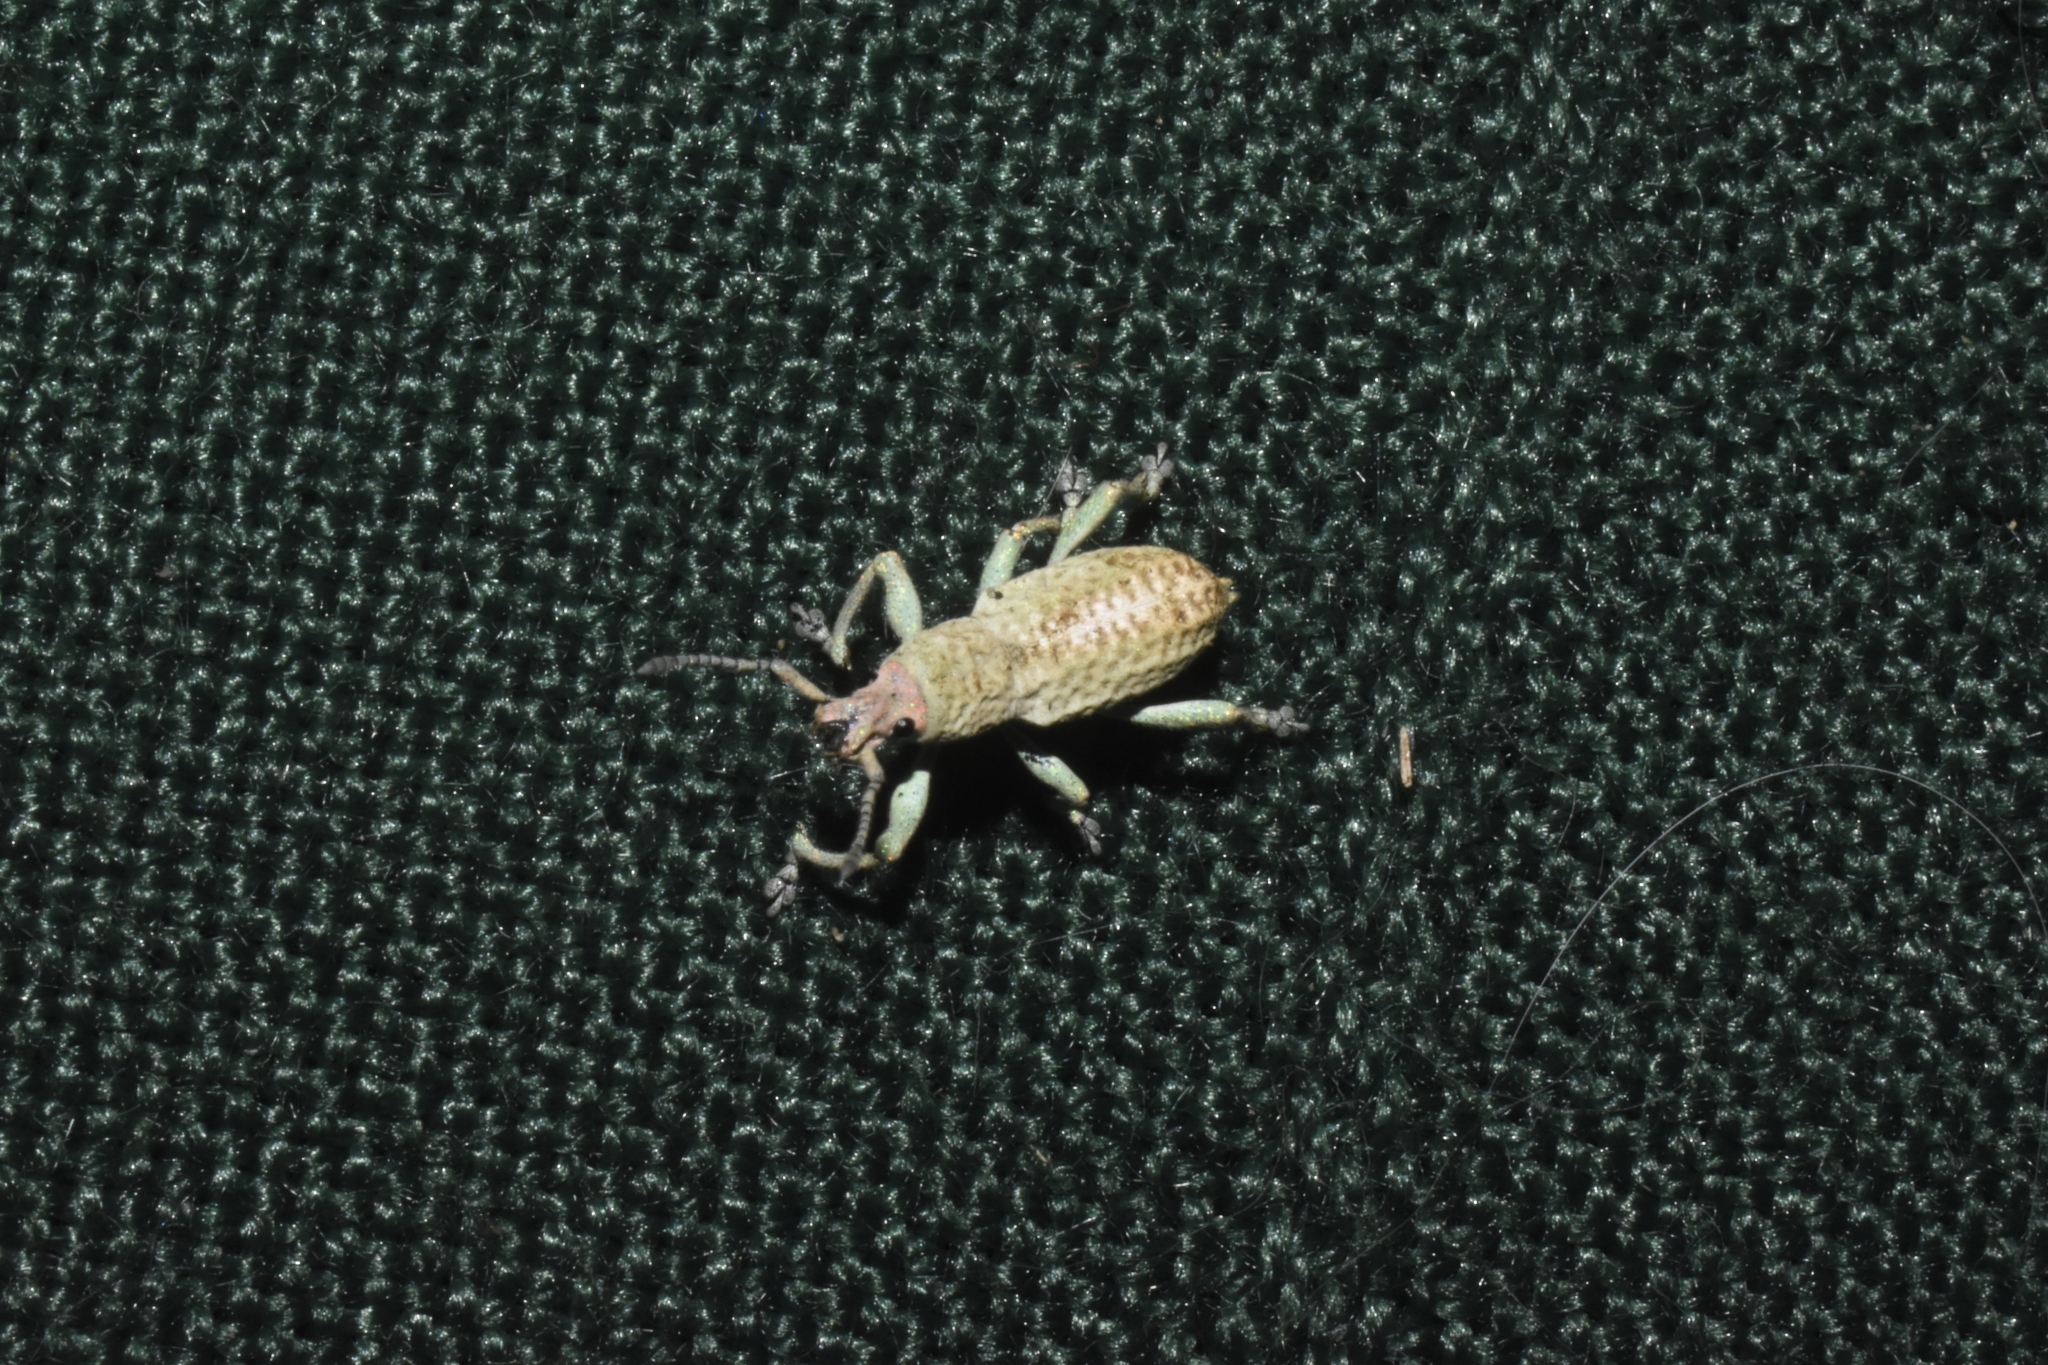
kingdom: Animalia
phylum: Arthropoda
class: Insecta
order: Coleoptera
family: Curculionidae
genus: Oxyderces
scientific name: Oxyderces viridipes
